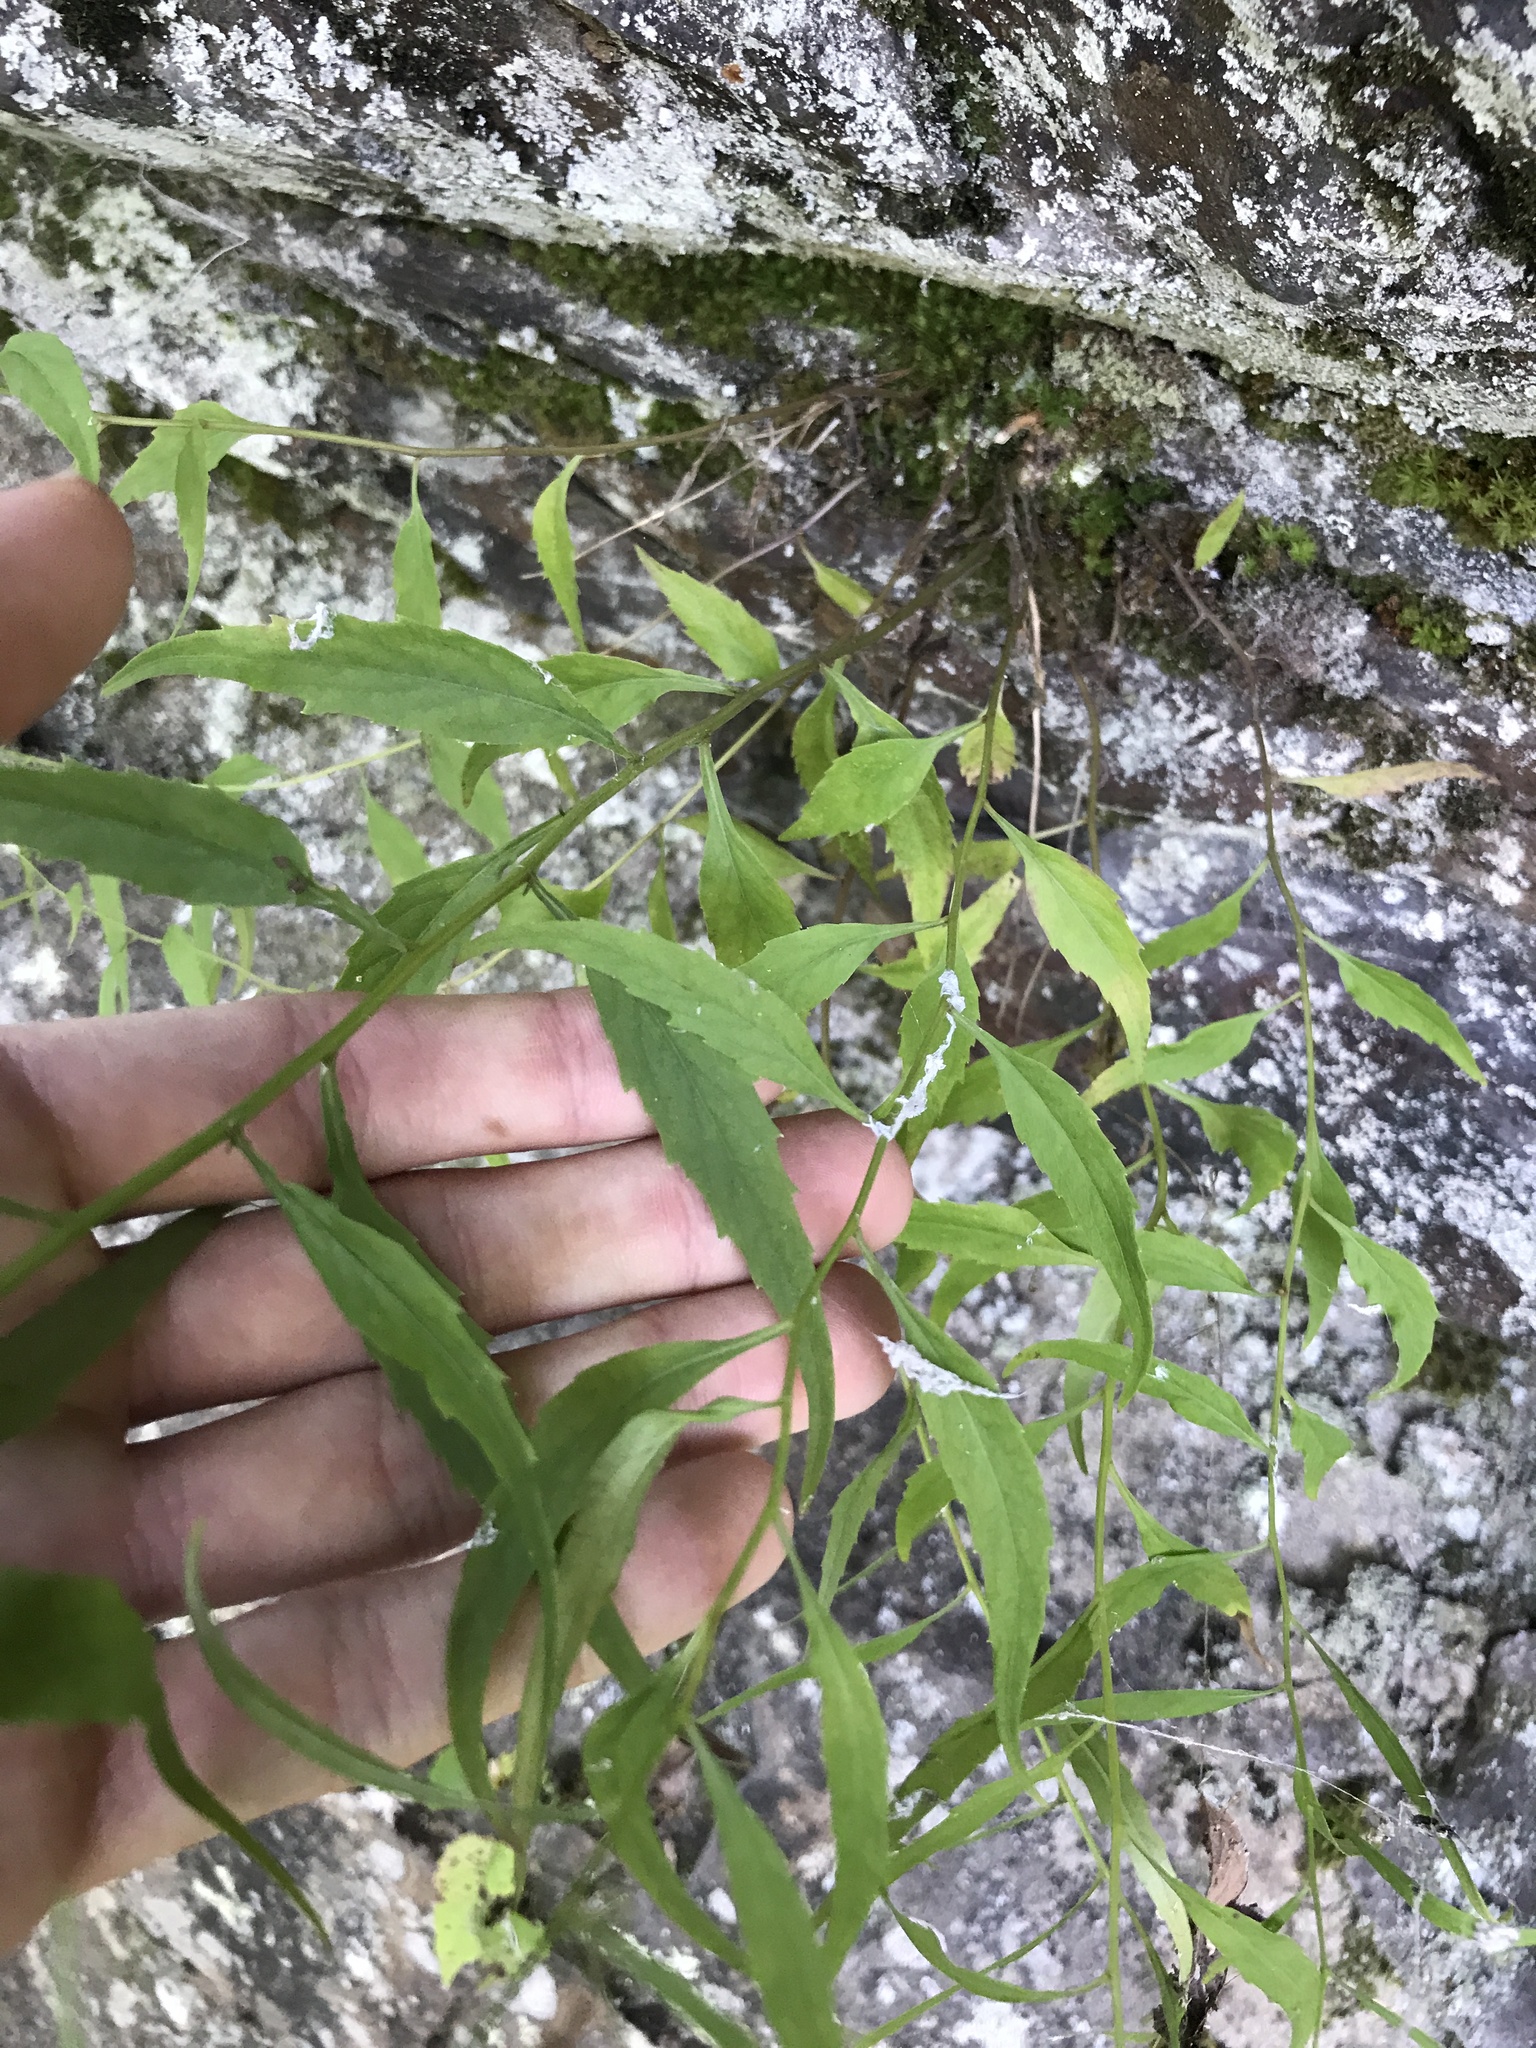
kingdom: Plantae
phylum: Tracheophyta
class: Magnoliopsida
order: Asterales
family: Campanulaceae
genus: Campanula
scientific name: Campanula divaricata
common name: Appalachian bellflower
